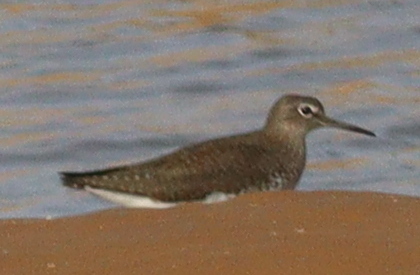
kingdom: Animalia
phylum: Chordata
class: Aves
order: Charadriiformes
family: Scolopacidae
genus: Tringa
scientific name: Tringa ochropus
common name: Green sandpiper
